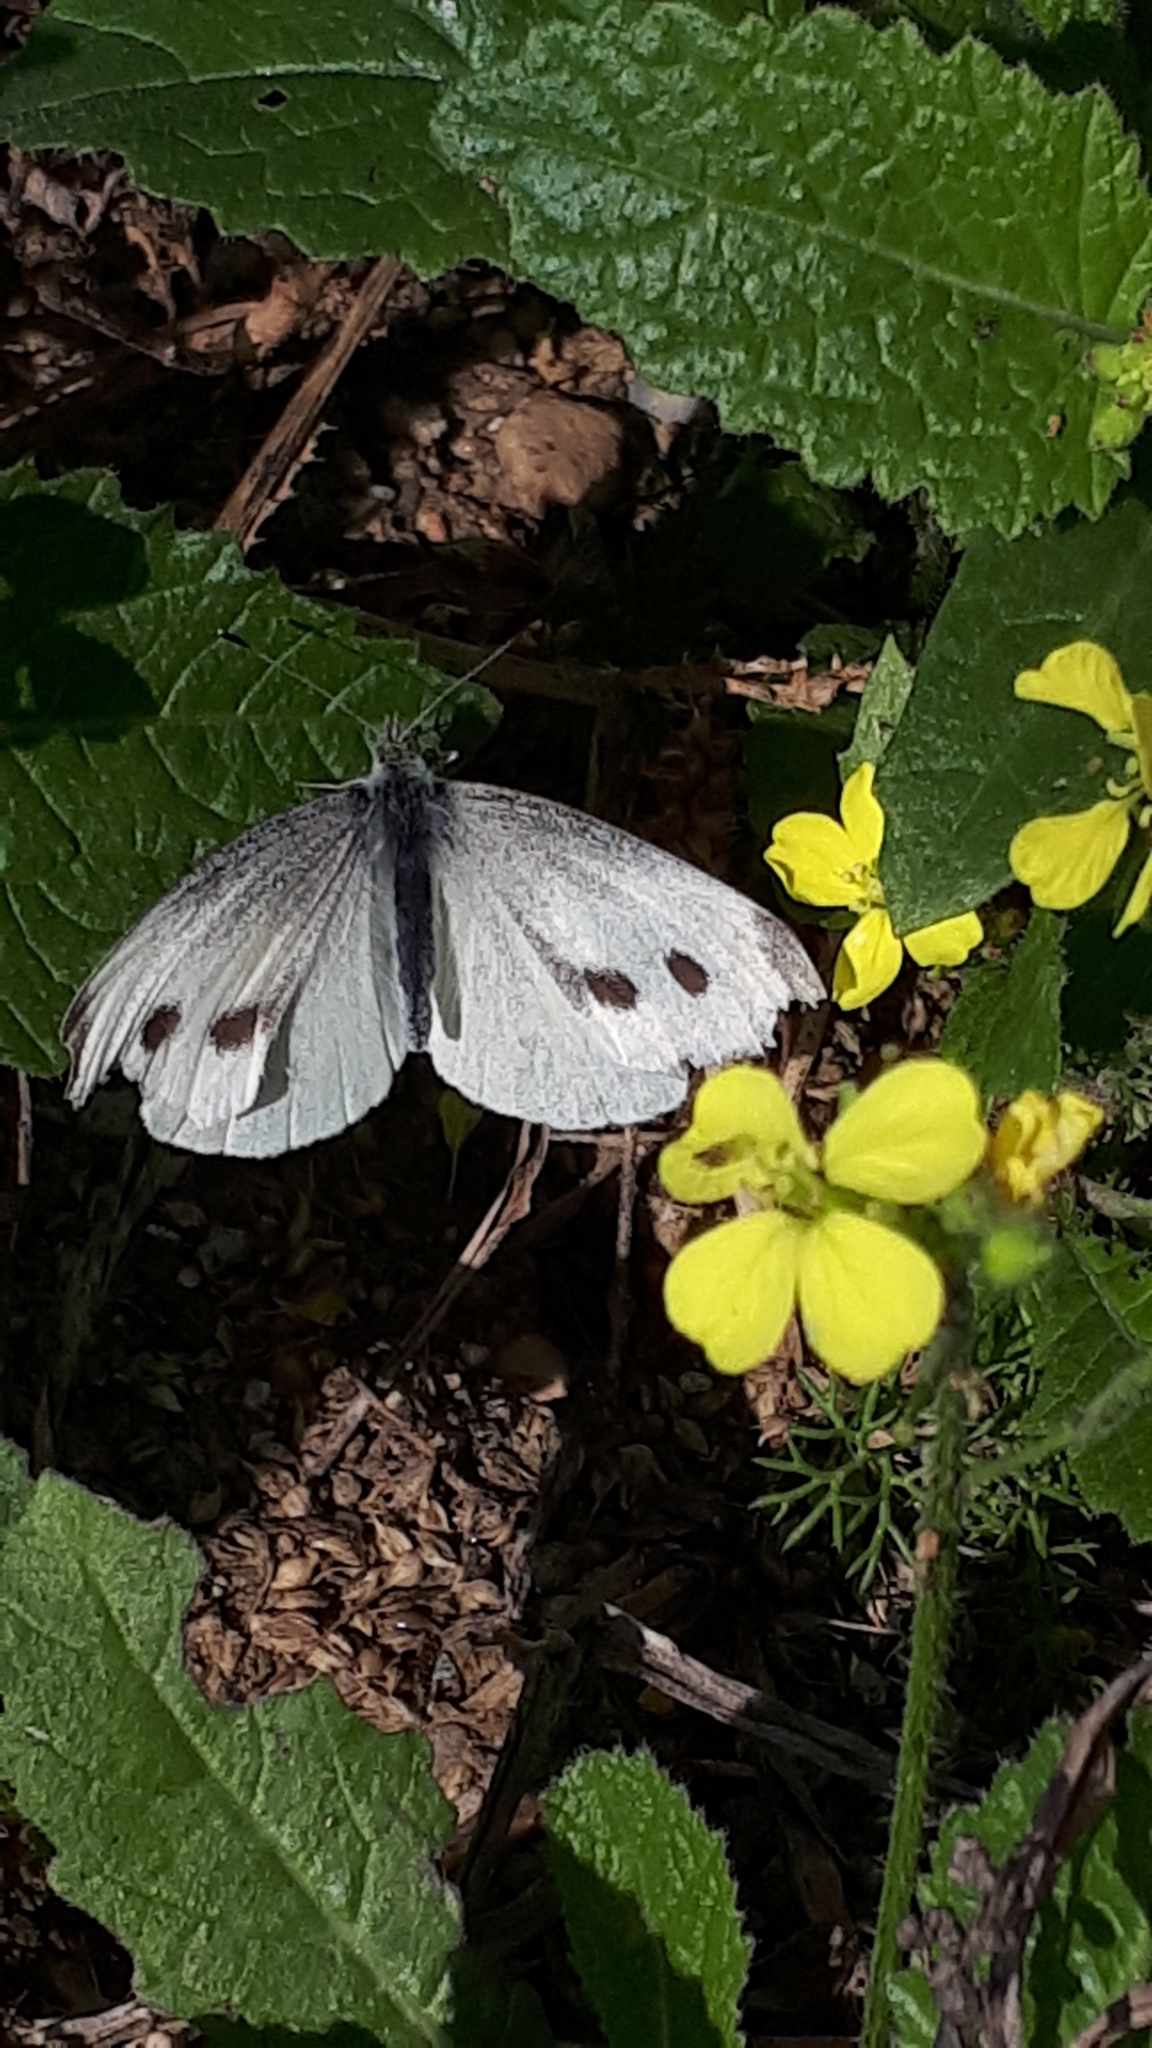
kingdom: Animalia
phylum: Arthropoda
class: Insecta
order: Lepidoptera
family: Pieridae
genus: Pieris
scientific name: Pieris rapae
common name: Small white
